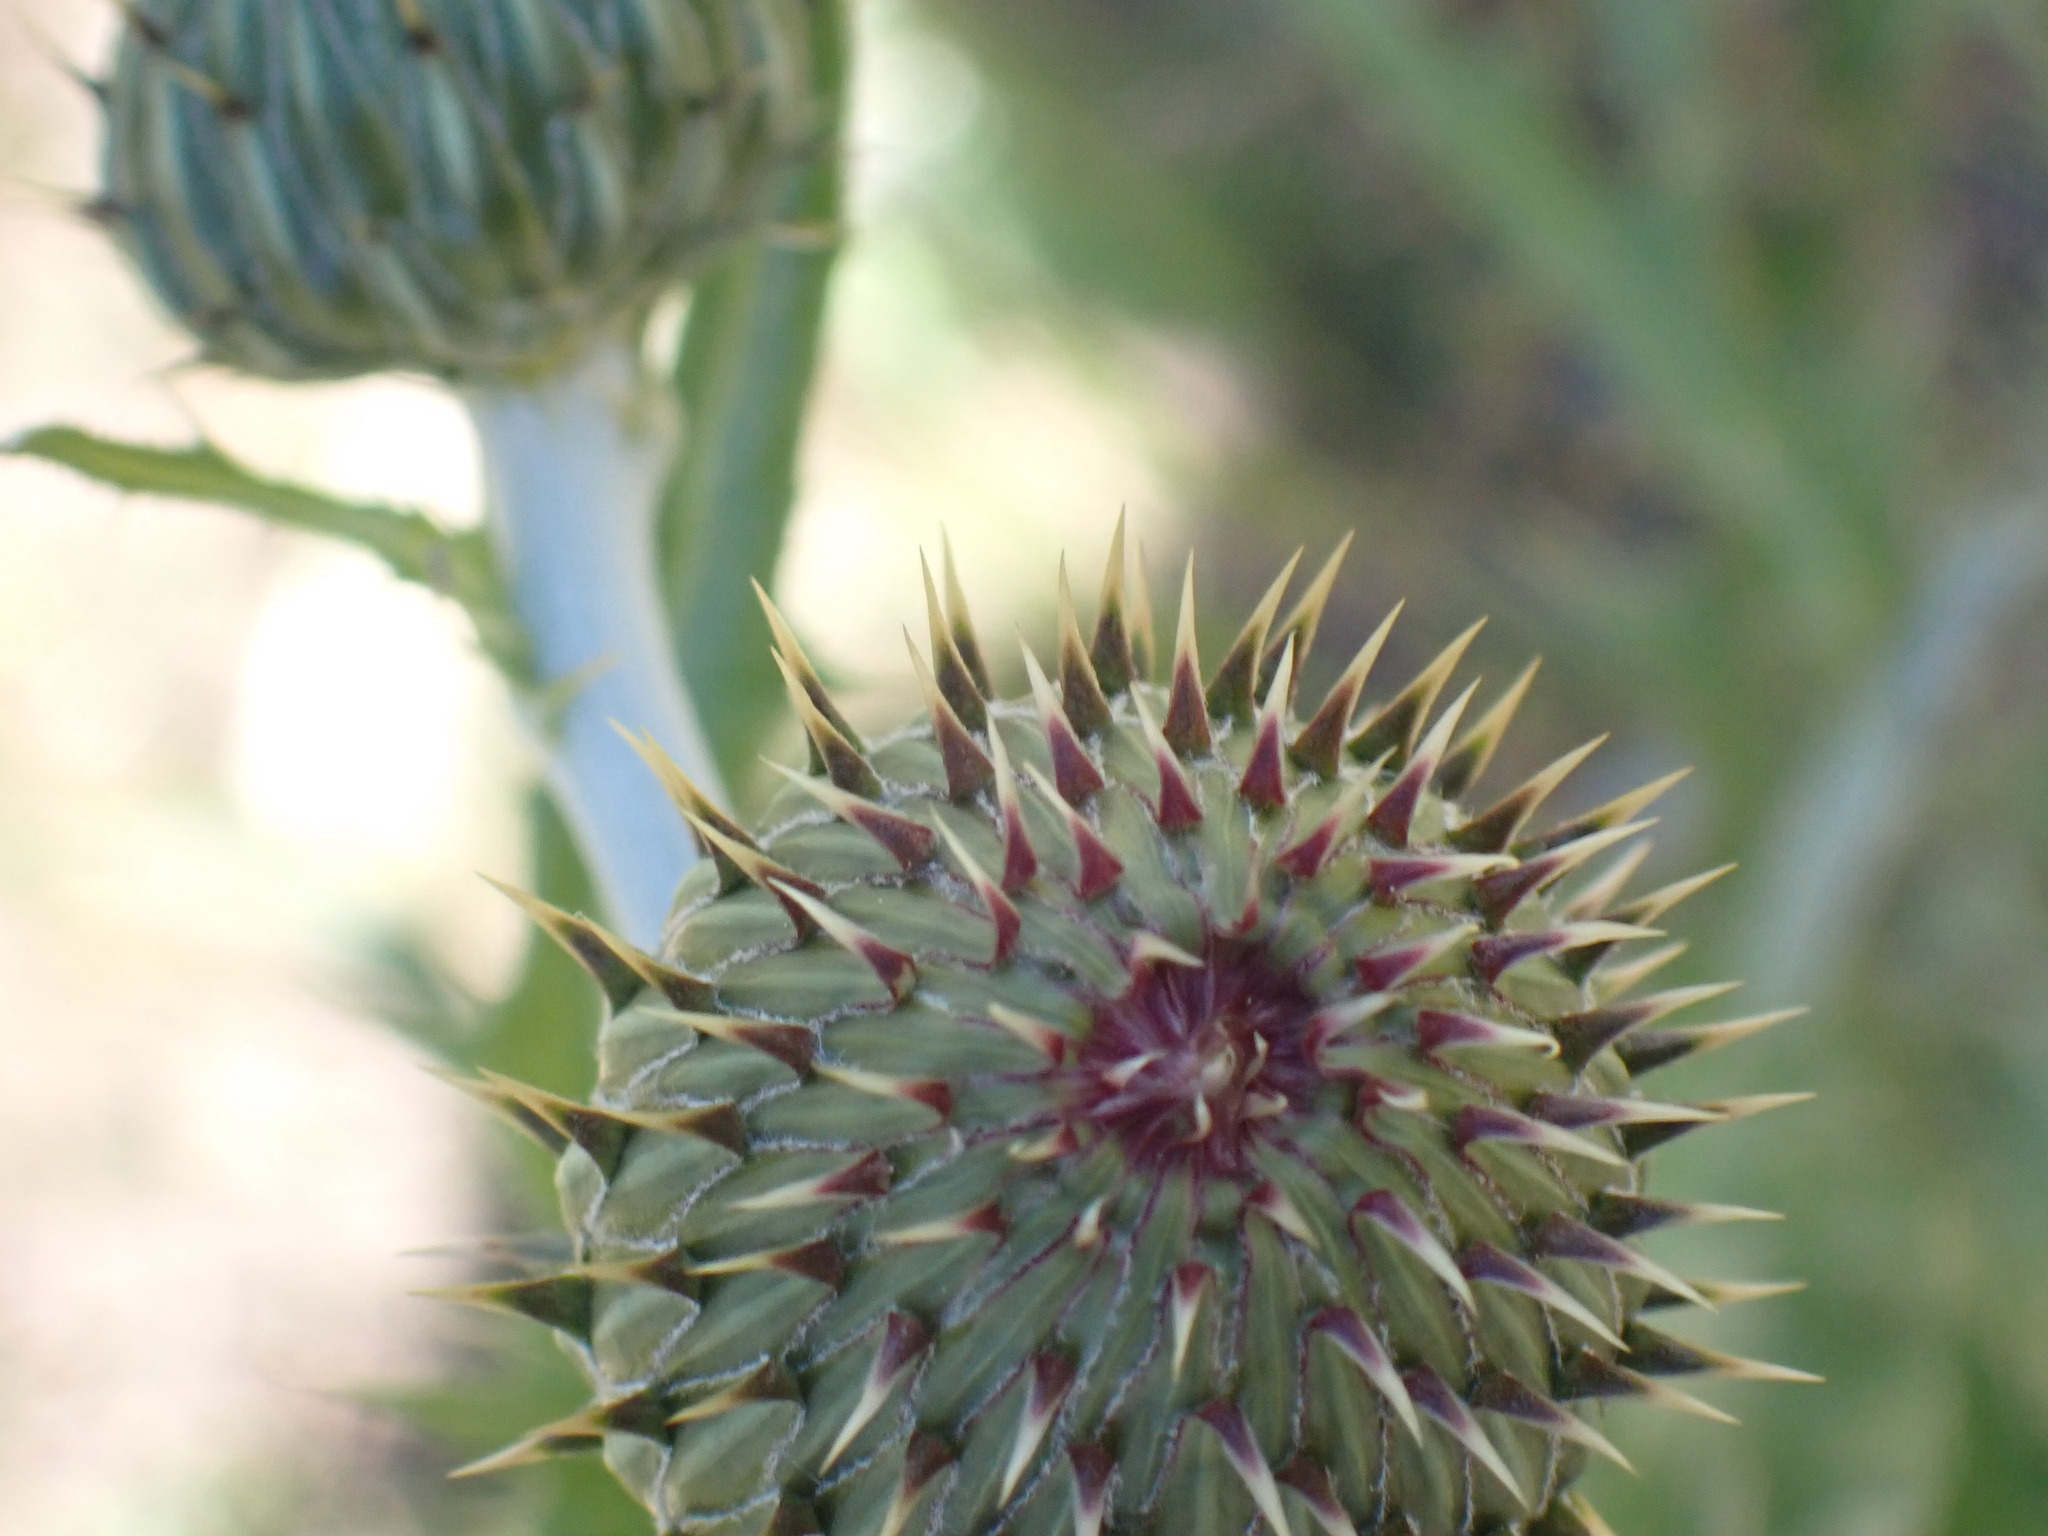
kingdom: Plantae
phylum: Tracheophyta
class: Magnoliopsida
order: Asterales
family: Asteraceae
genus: Cirsium
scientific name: Cirsium undulatum
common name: Pasture thistle
